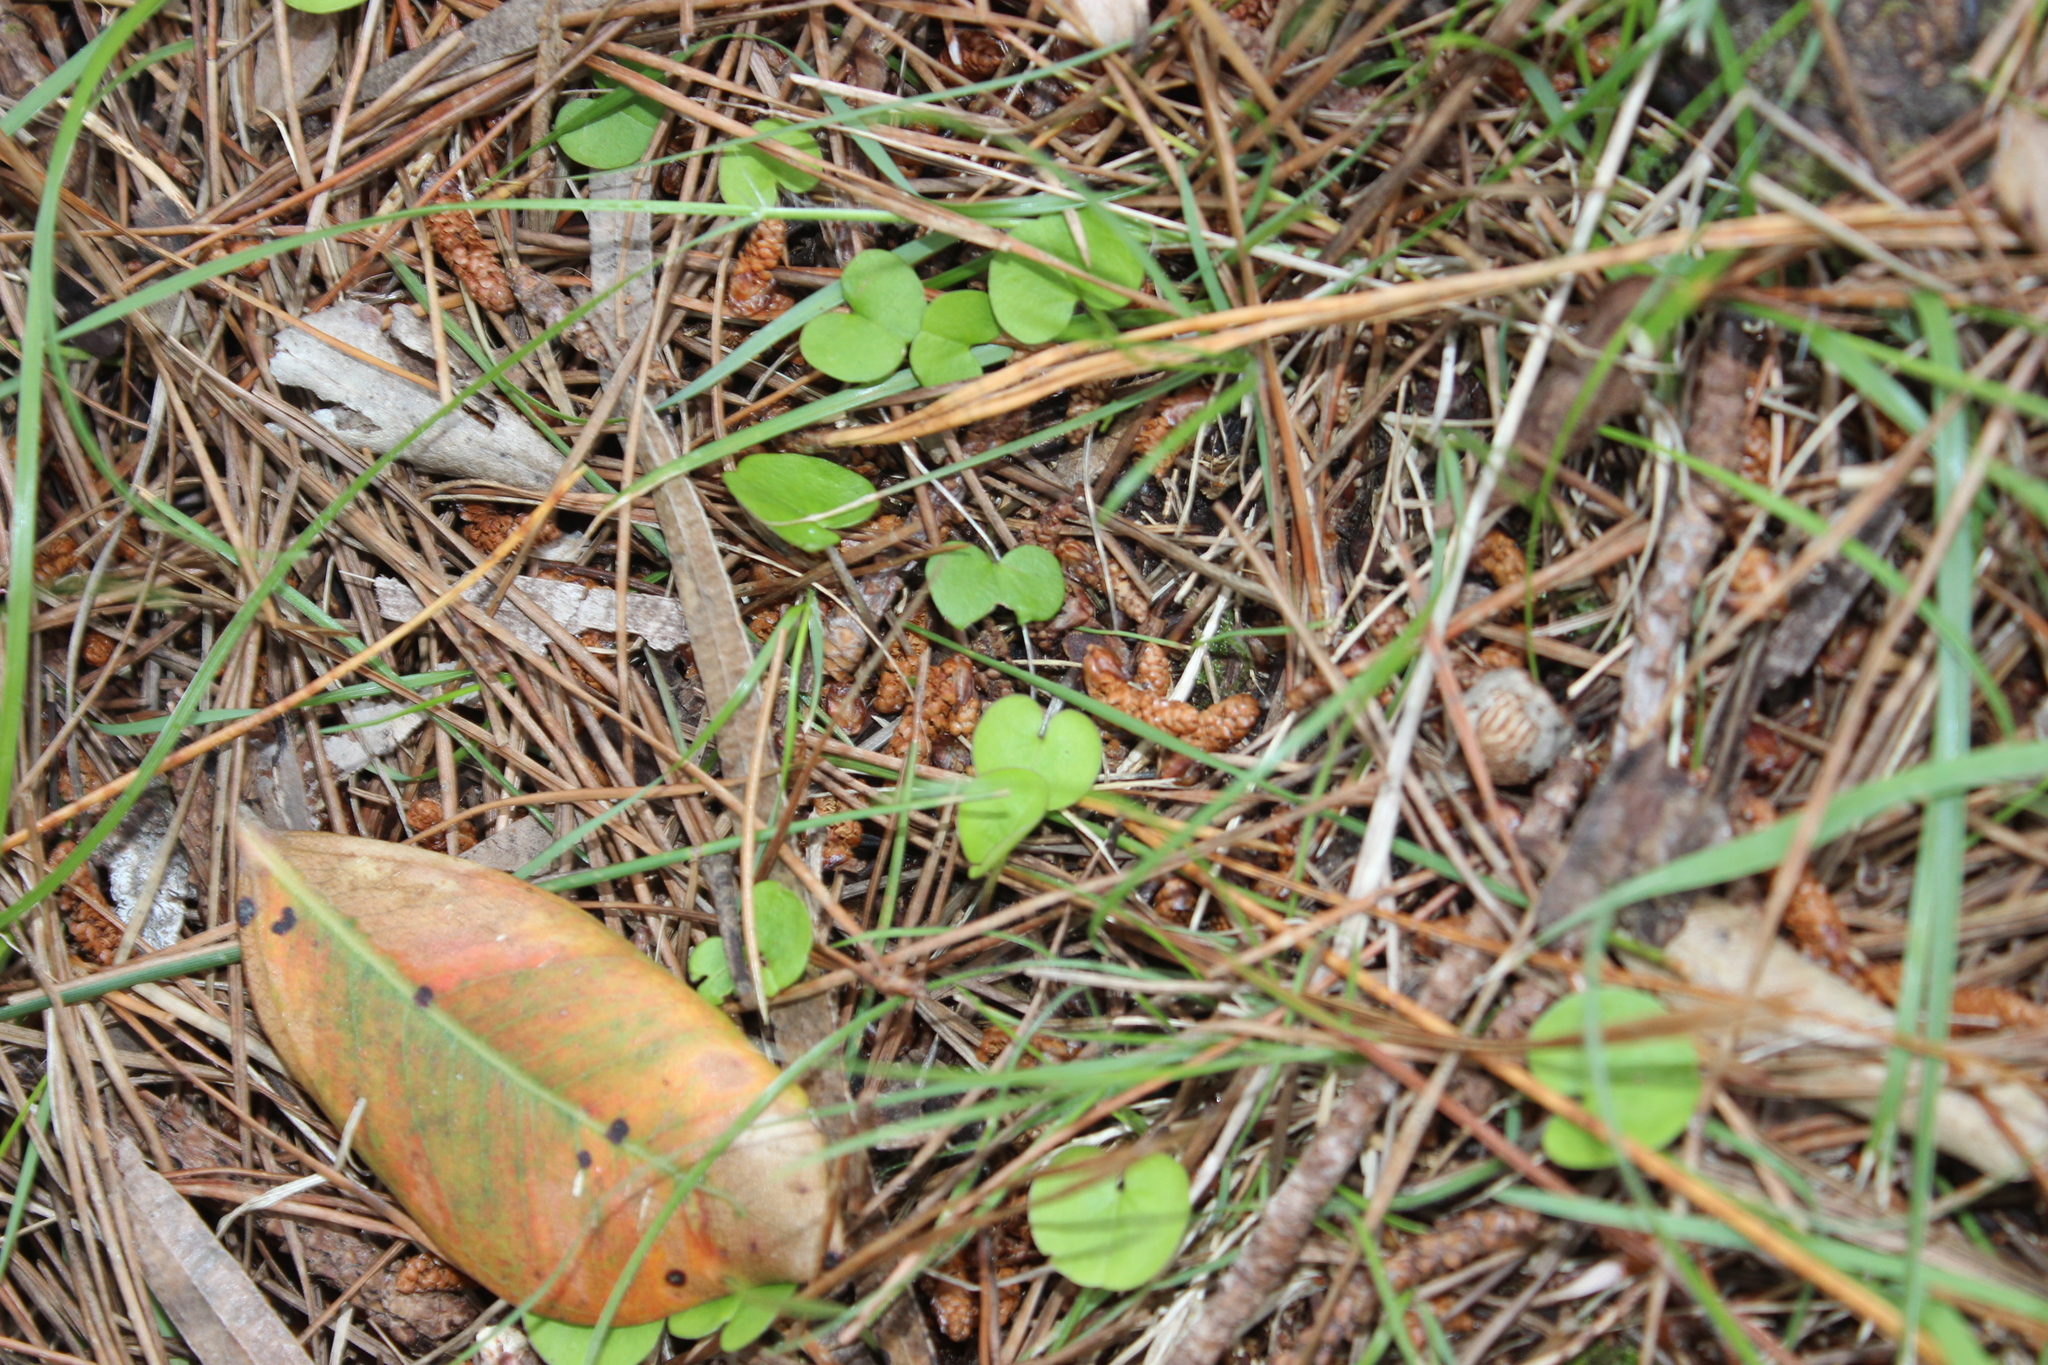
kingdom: Plantae
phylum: Tracheophyta
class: Magnoliopsida
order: Solanales
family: Convolvulaceae
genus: Dichondra
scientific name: Dichondra repens
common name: Kidneyweed
